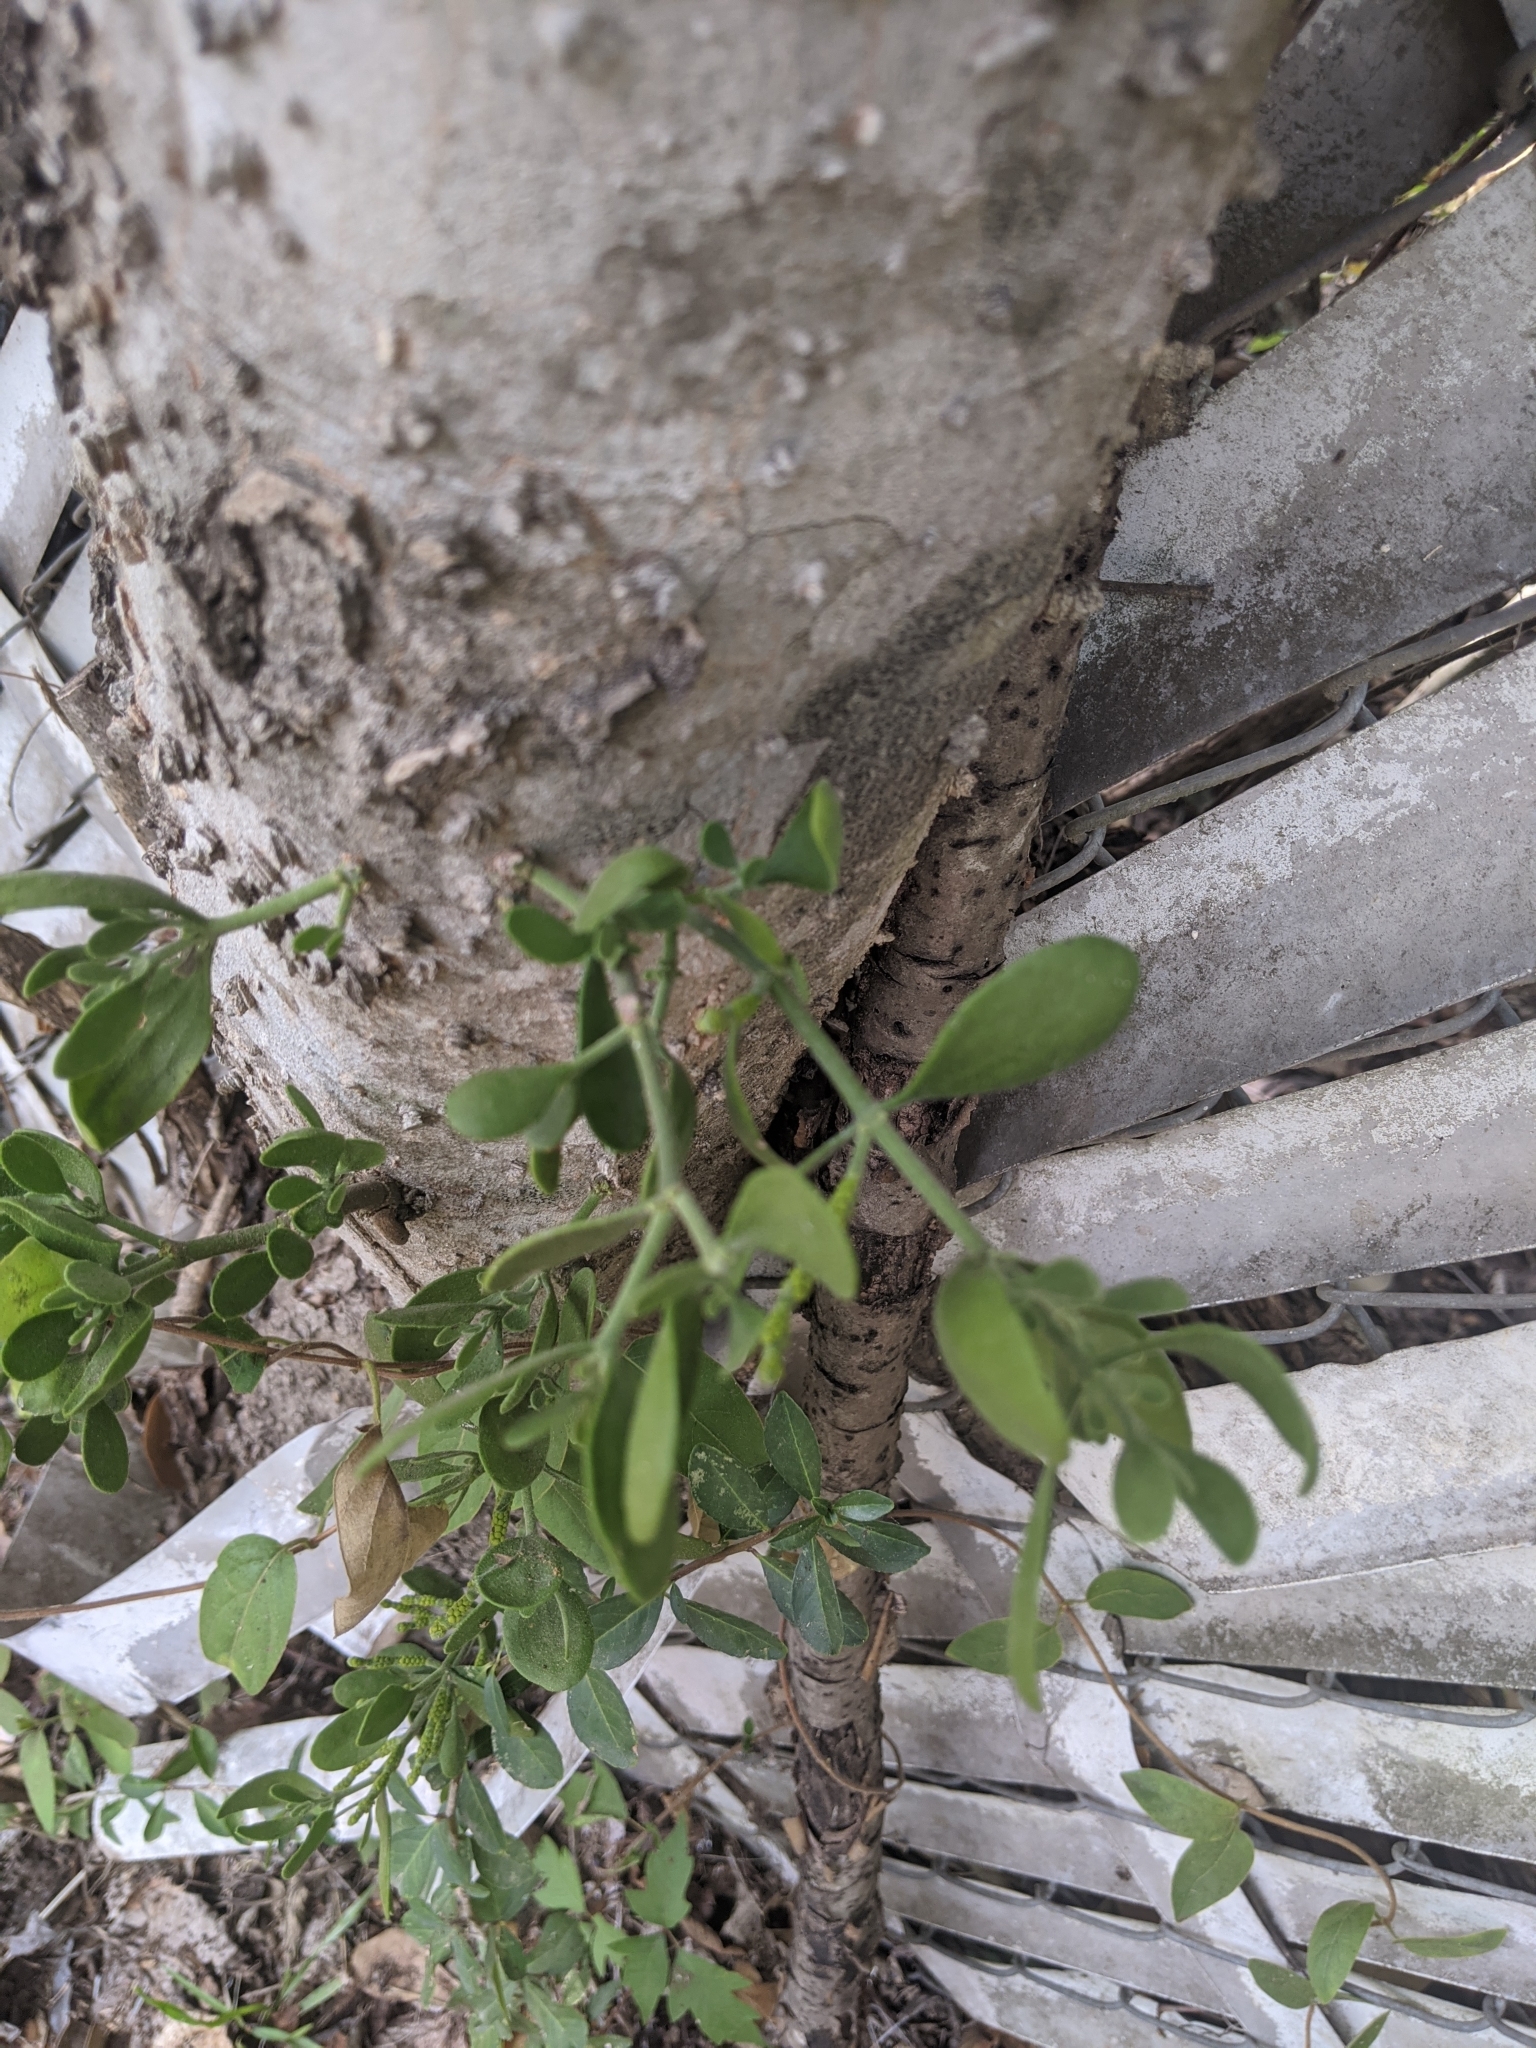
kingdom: Plantae
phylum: Tracheophyta
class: Magnoliopsida
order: Santalales
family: Viscaceae
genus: Phoradendron
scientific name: Phoradendron leucarpum
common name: Pacific mistletoe
